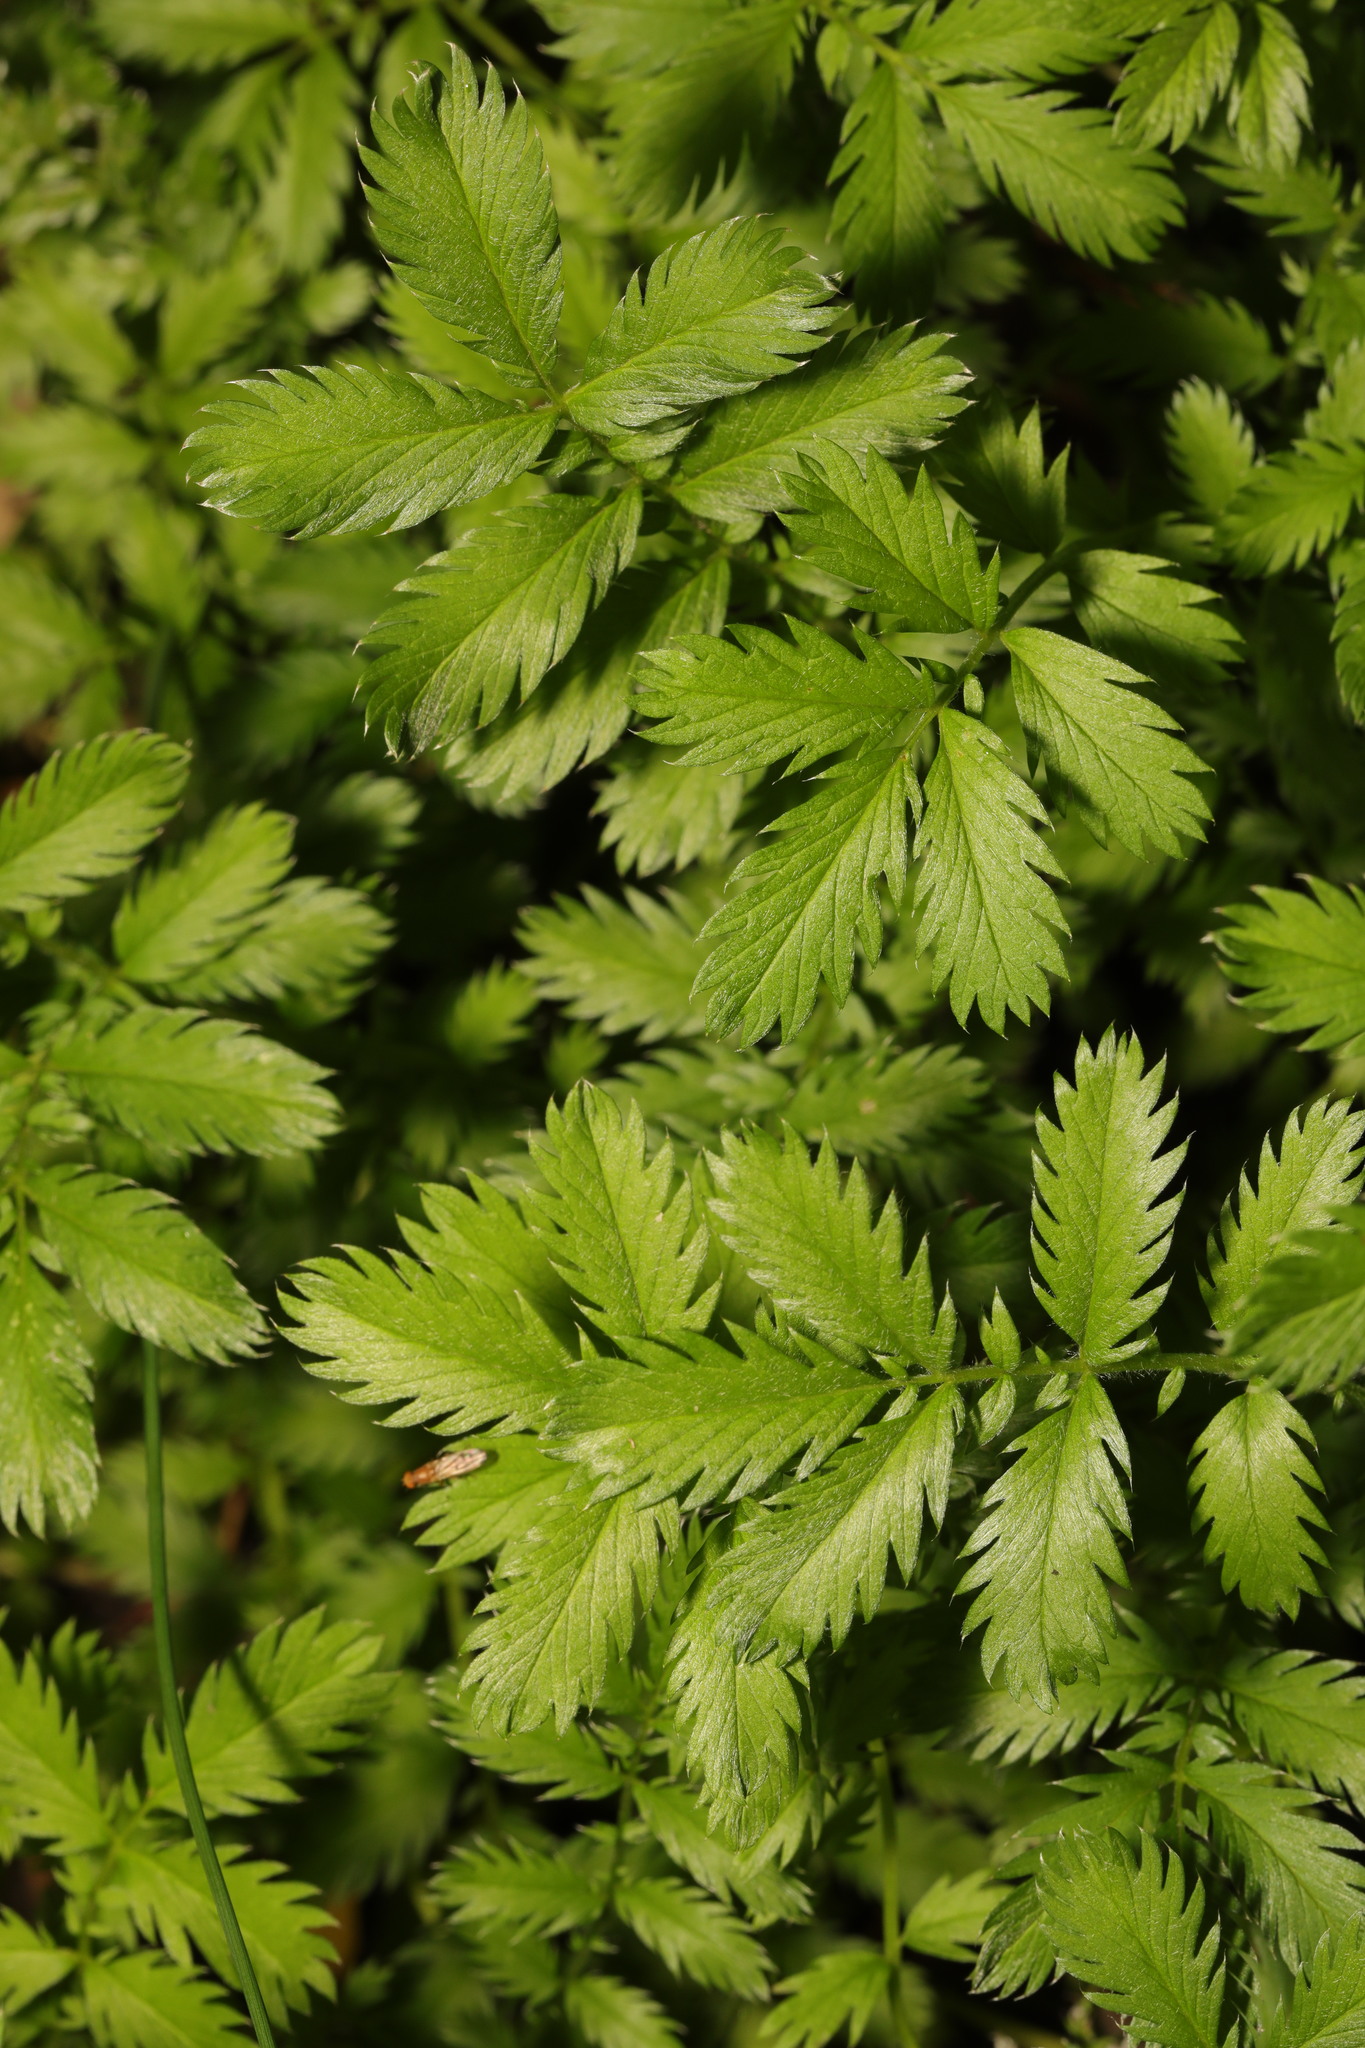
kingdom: Plantae
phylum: Tracheophyta
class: Magnoliopsida
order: Rosales
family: Rosaceae
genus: Argentina
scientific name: Argentina anserina
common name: Common silverweed
